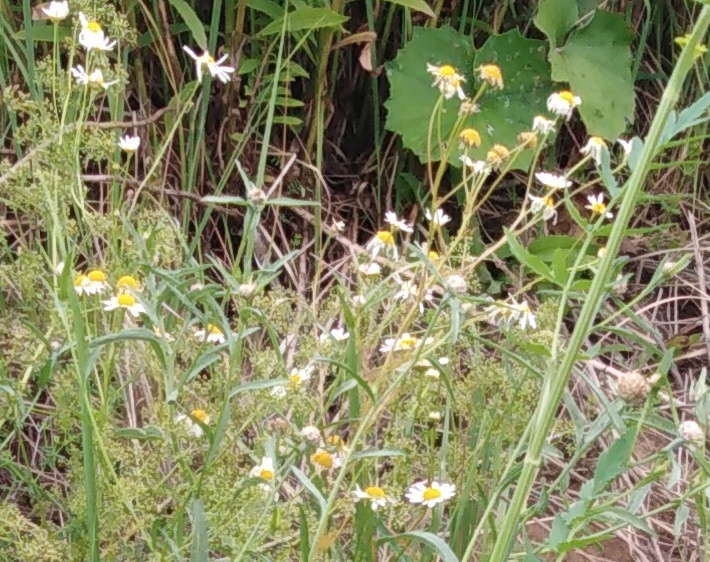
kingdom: Plantae
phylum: Tracheophyta
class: Magnoliopsida
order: Asterales
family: Asteraceae
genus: Tripleurospermum
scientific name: Tripleurospermum inodorum
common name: Scentless mayweed
